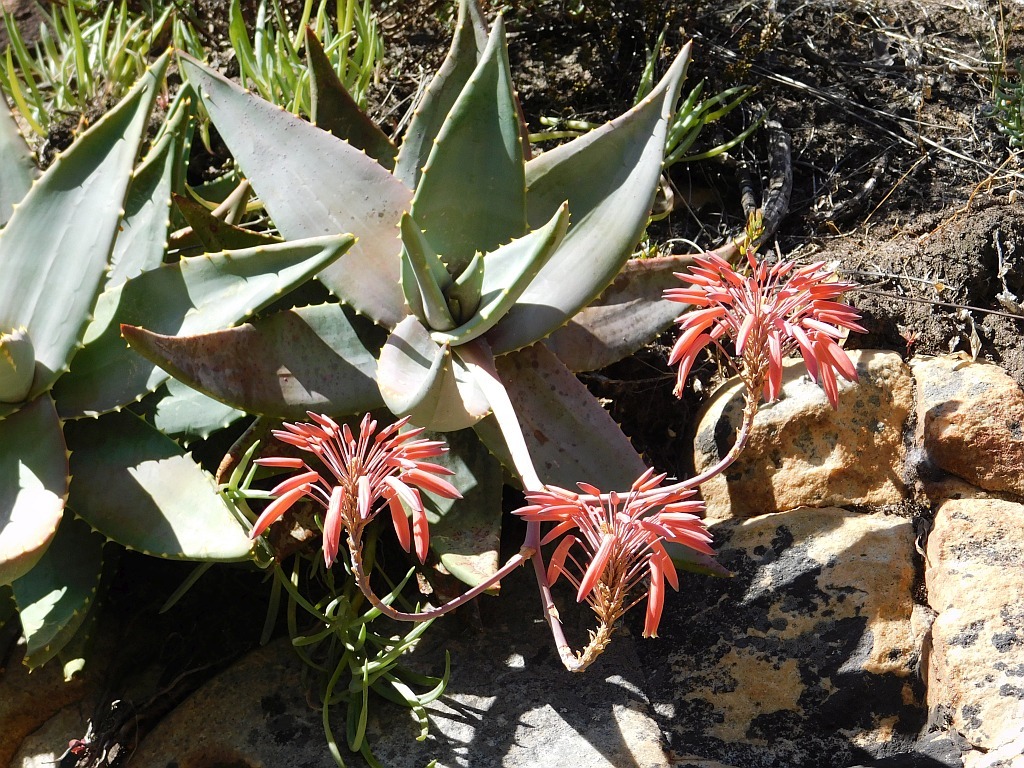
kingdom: Plantae
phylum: Tracheophyta
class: Liliopsida
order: Asparagales
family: Asphodelaceae
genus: Aloe
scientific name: Aloe perfoliata
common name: Mitra aloe
